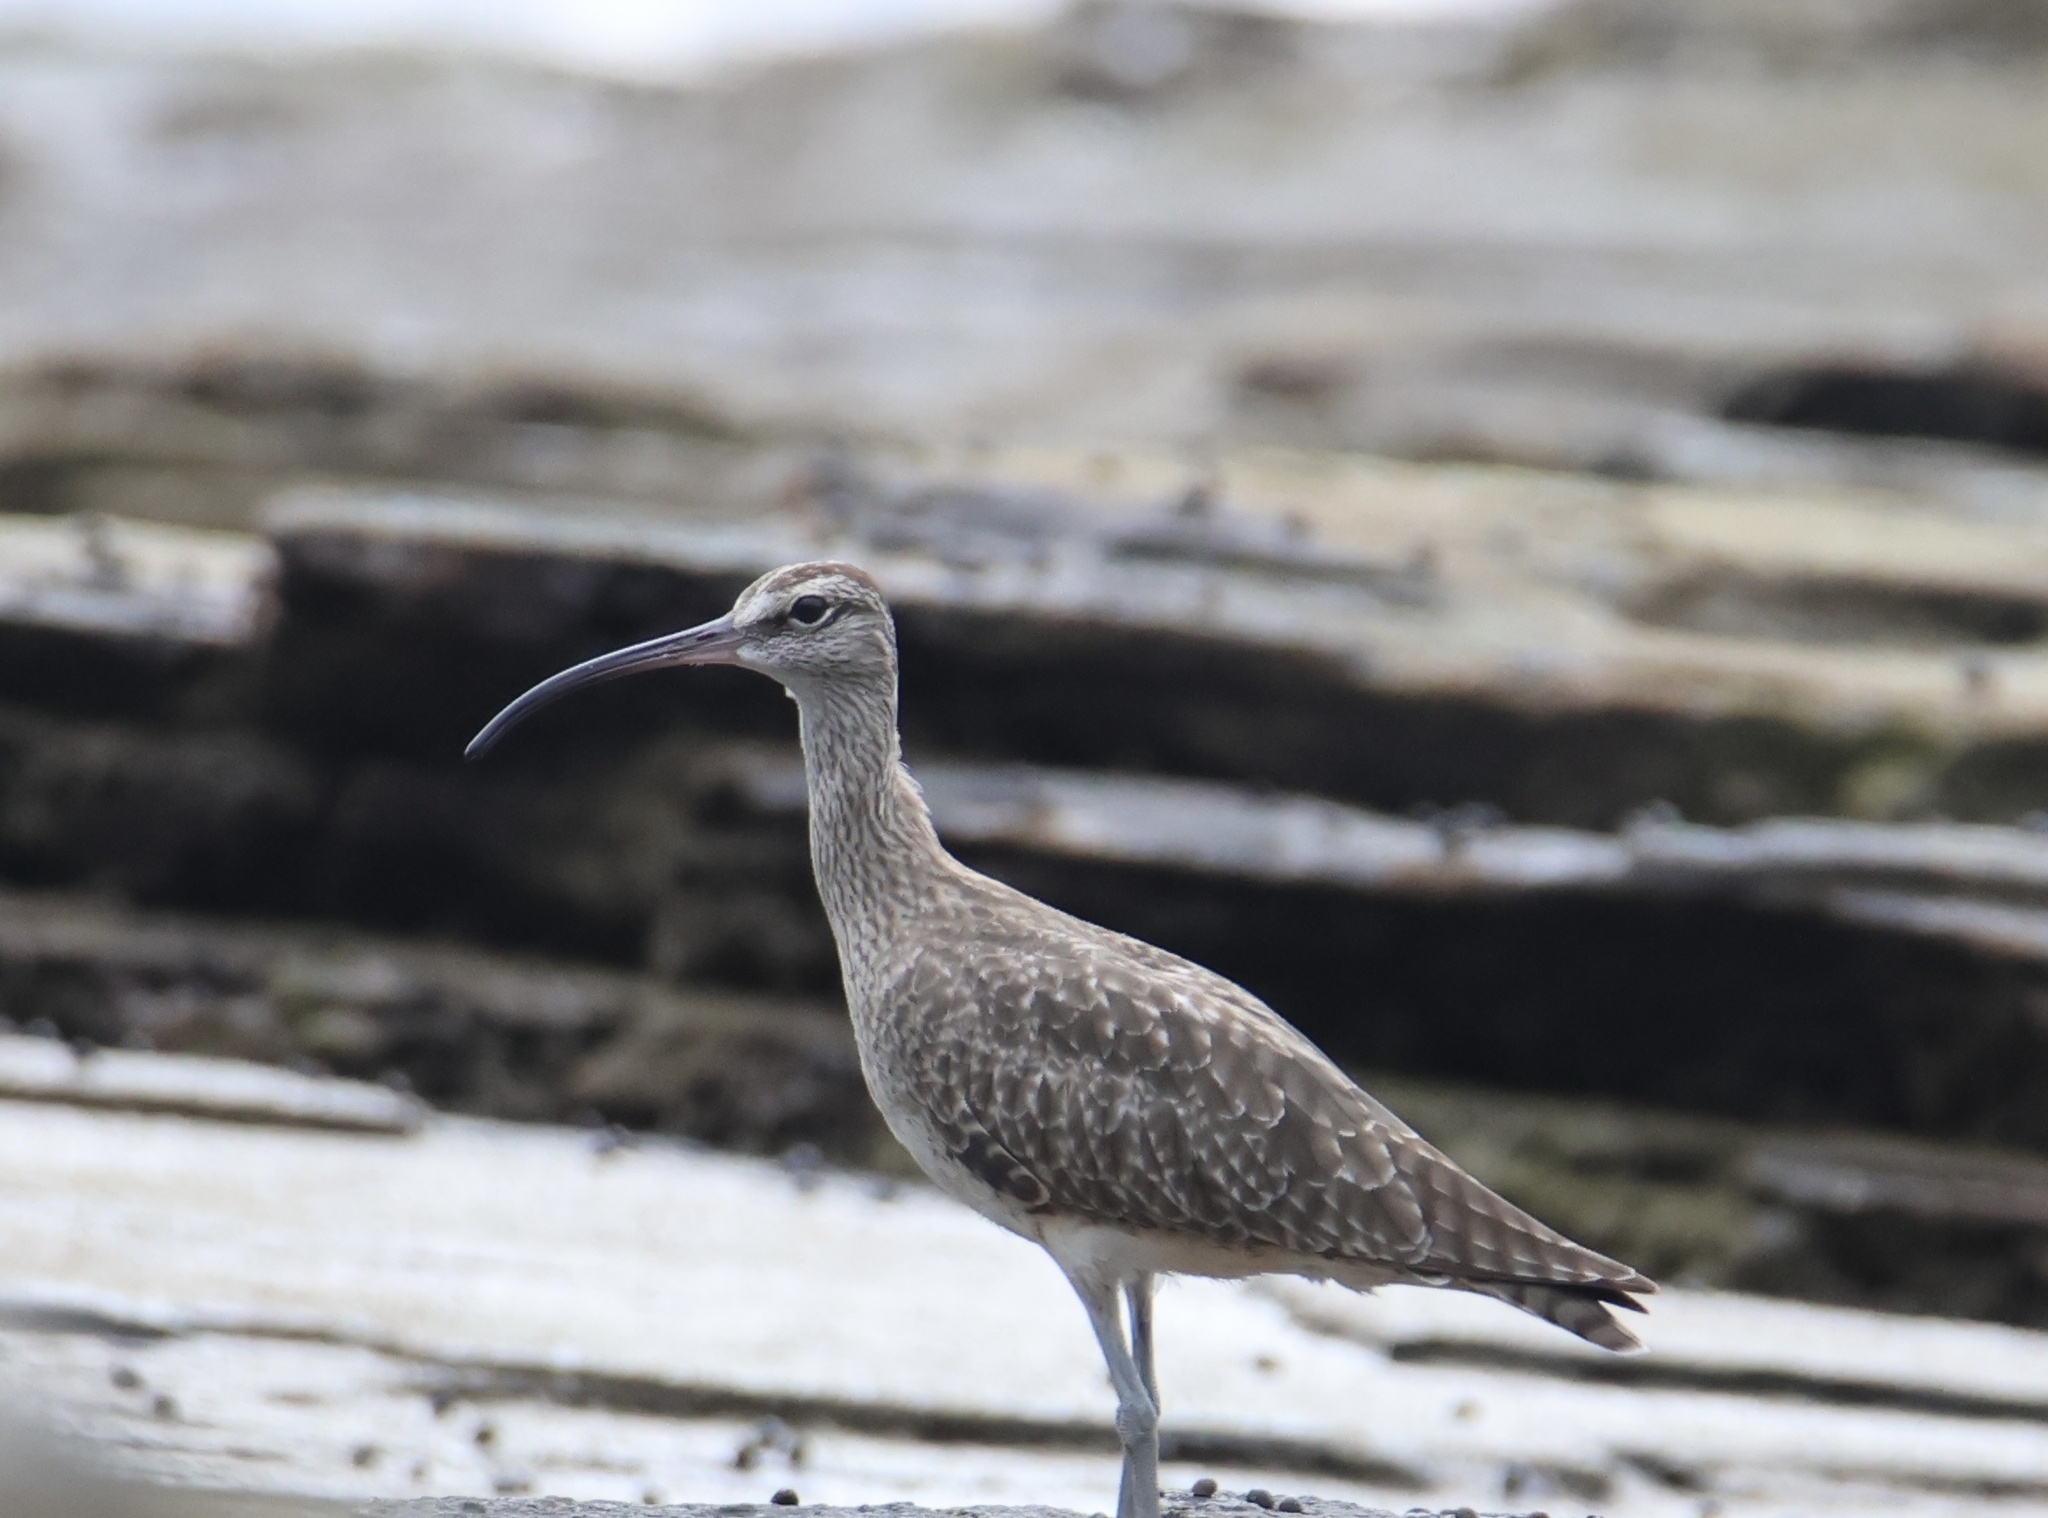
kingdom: Animalia
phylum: Chordata
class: Aves
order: Charadriiformes
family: Scolopacidae
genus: Numenius
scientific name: Numenius phaeopus
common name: Whimbrel
